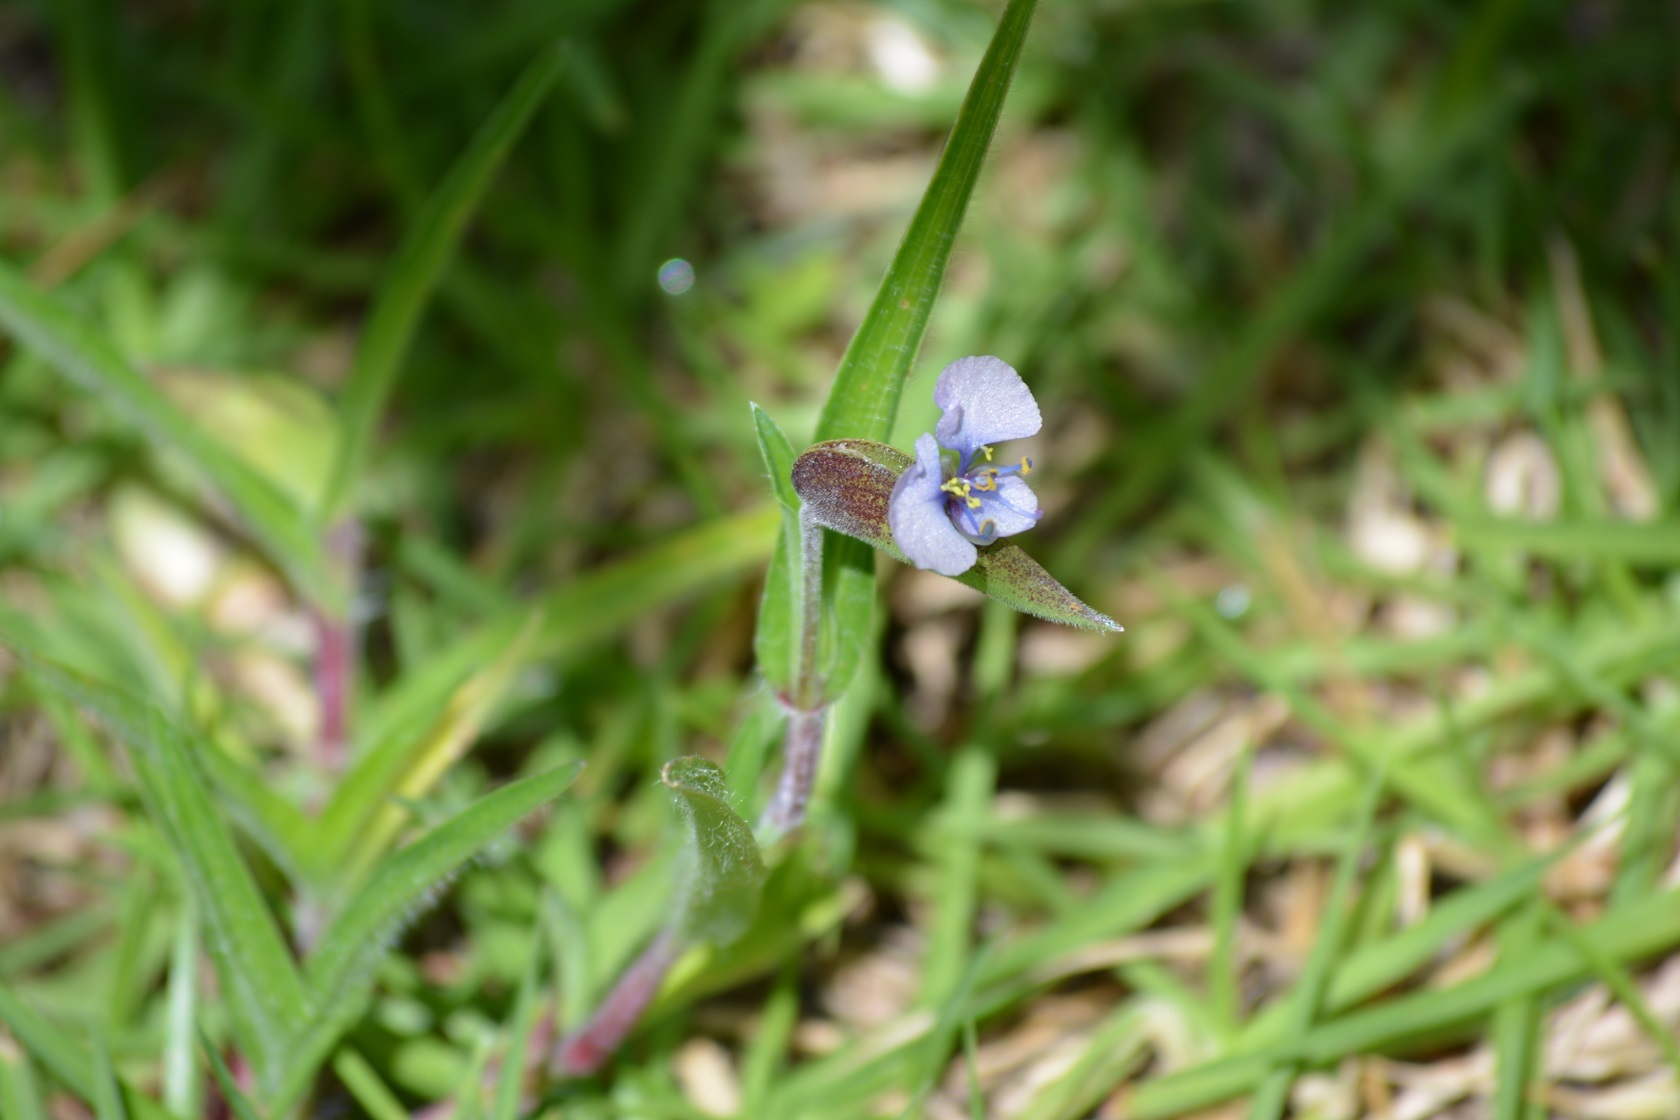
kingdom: Plantae
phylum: Tracheophyta
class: Liliopsida
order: Commelinales
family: Commelinaceae
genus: Commelina
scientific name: Commelina tuberosa
